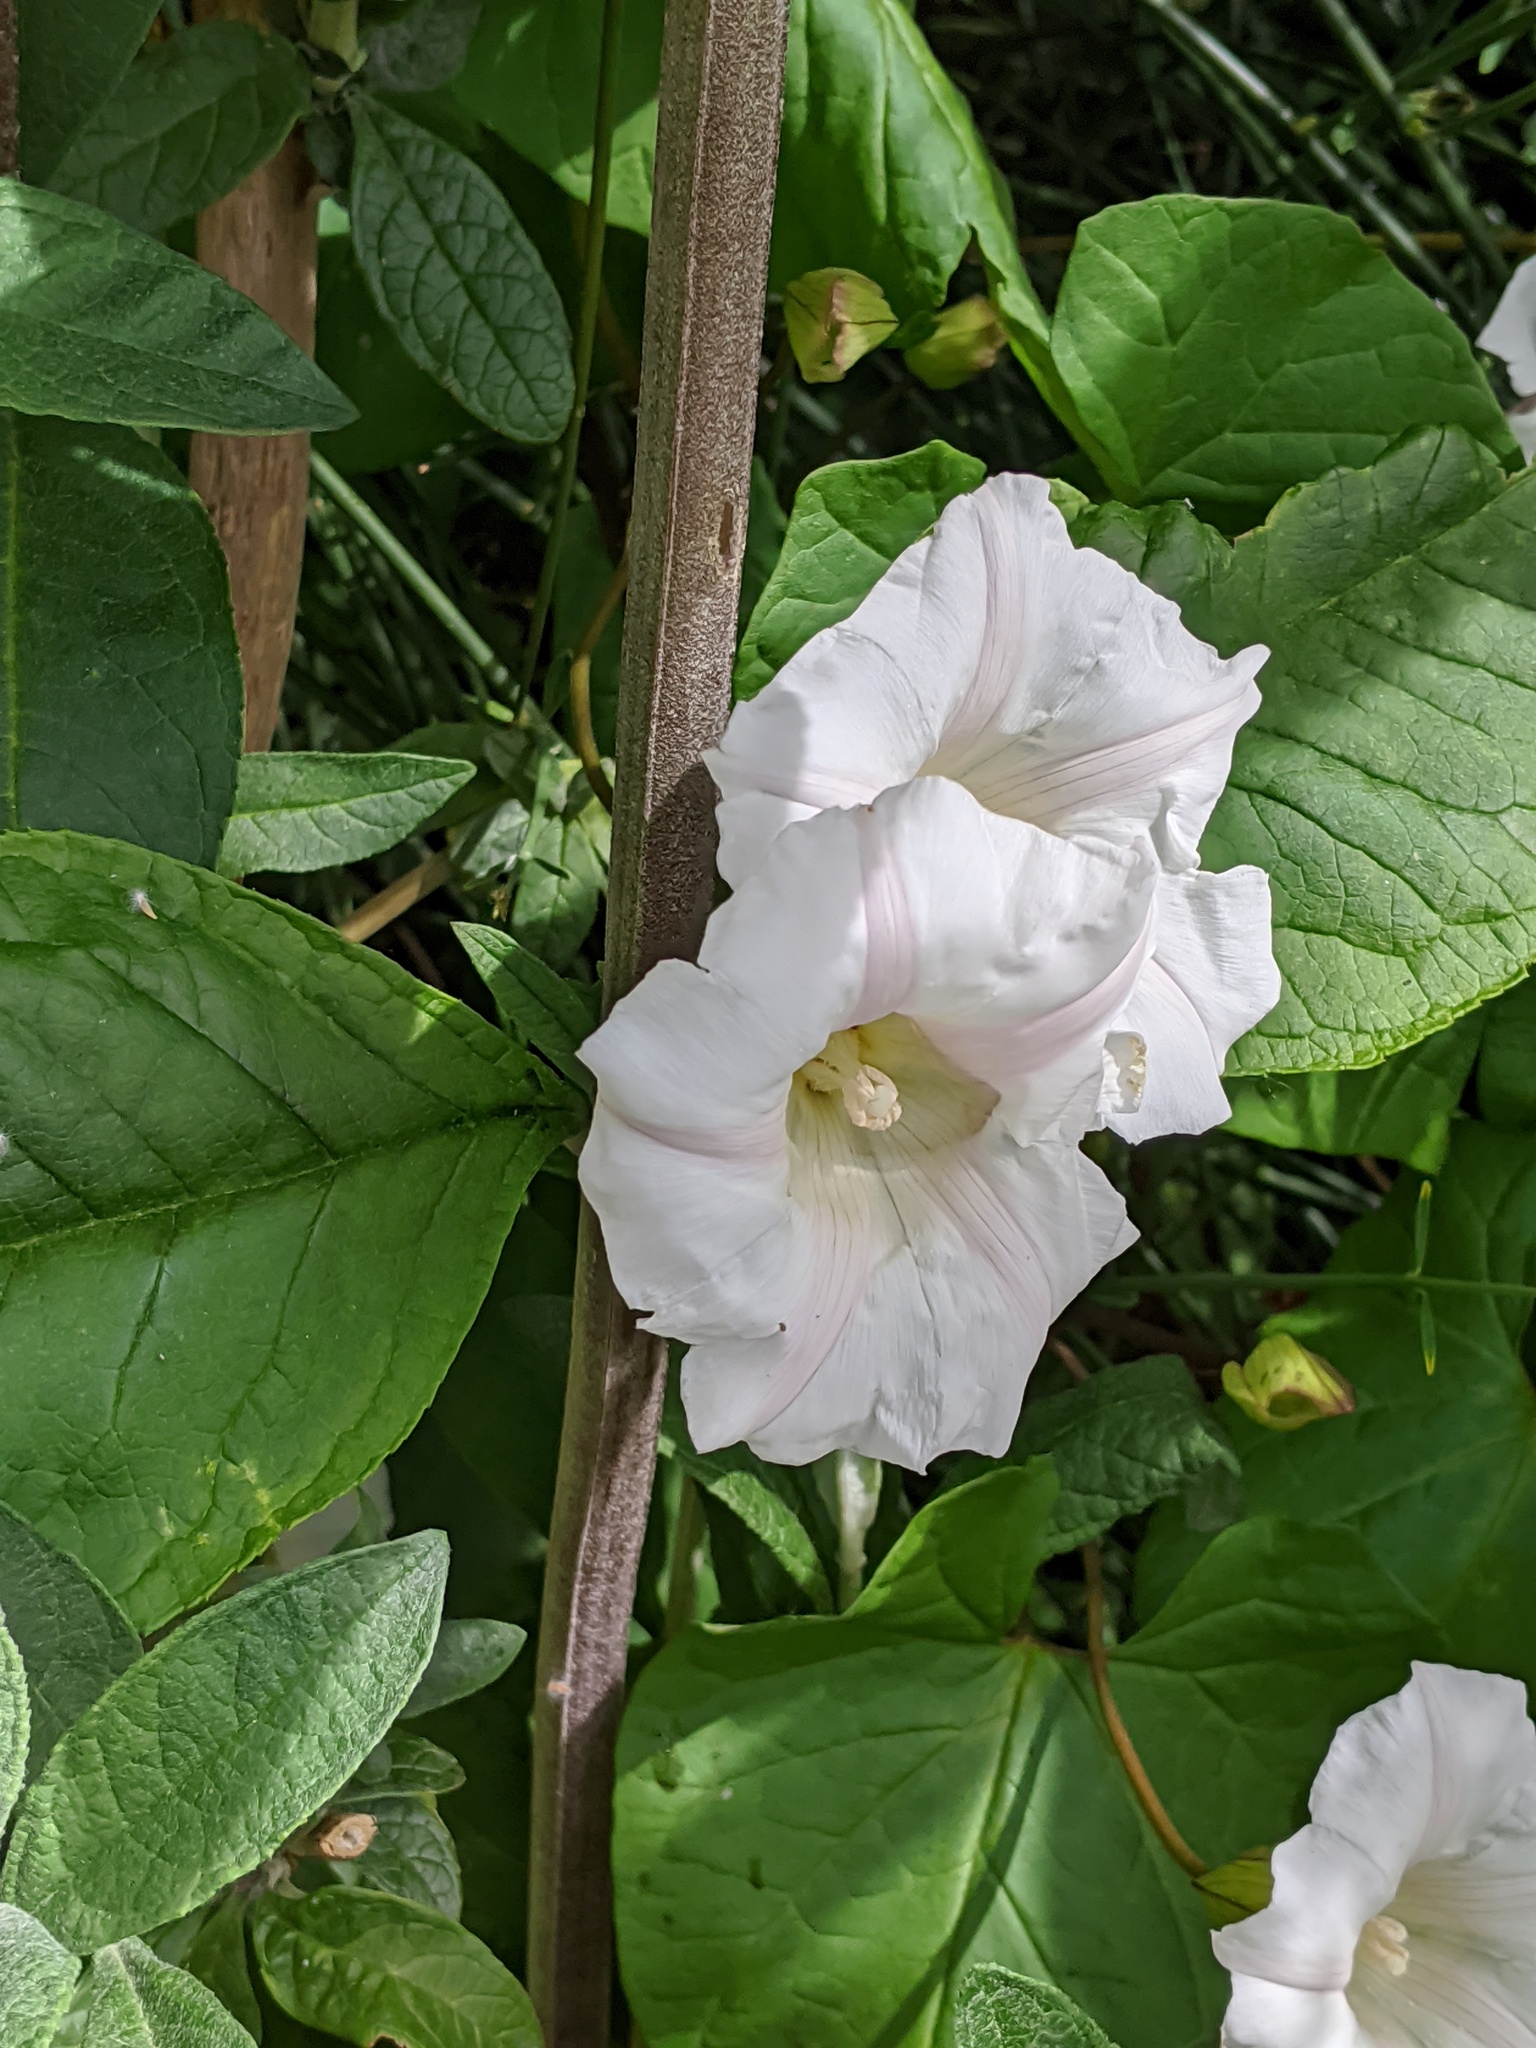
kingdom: Plantae
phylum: Tracheophyta
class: Magnoliopsida
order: Solanales
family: Convolvulaceae
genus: Calystegia
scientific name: Calystegia silvatica
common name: Large bindweed
